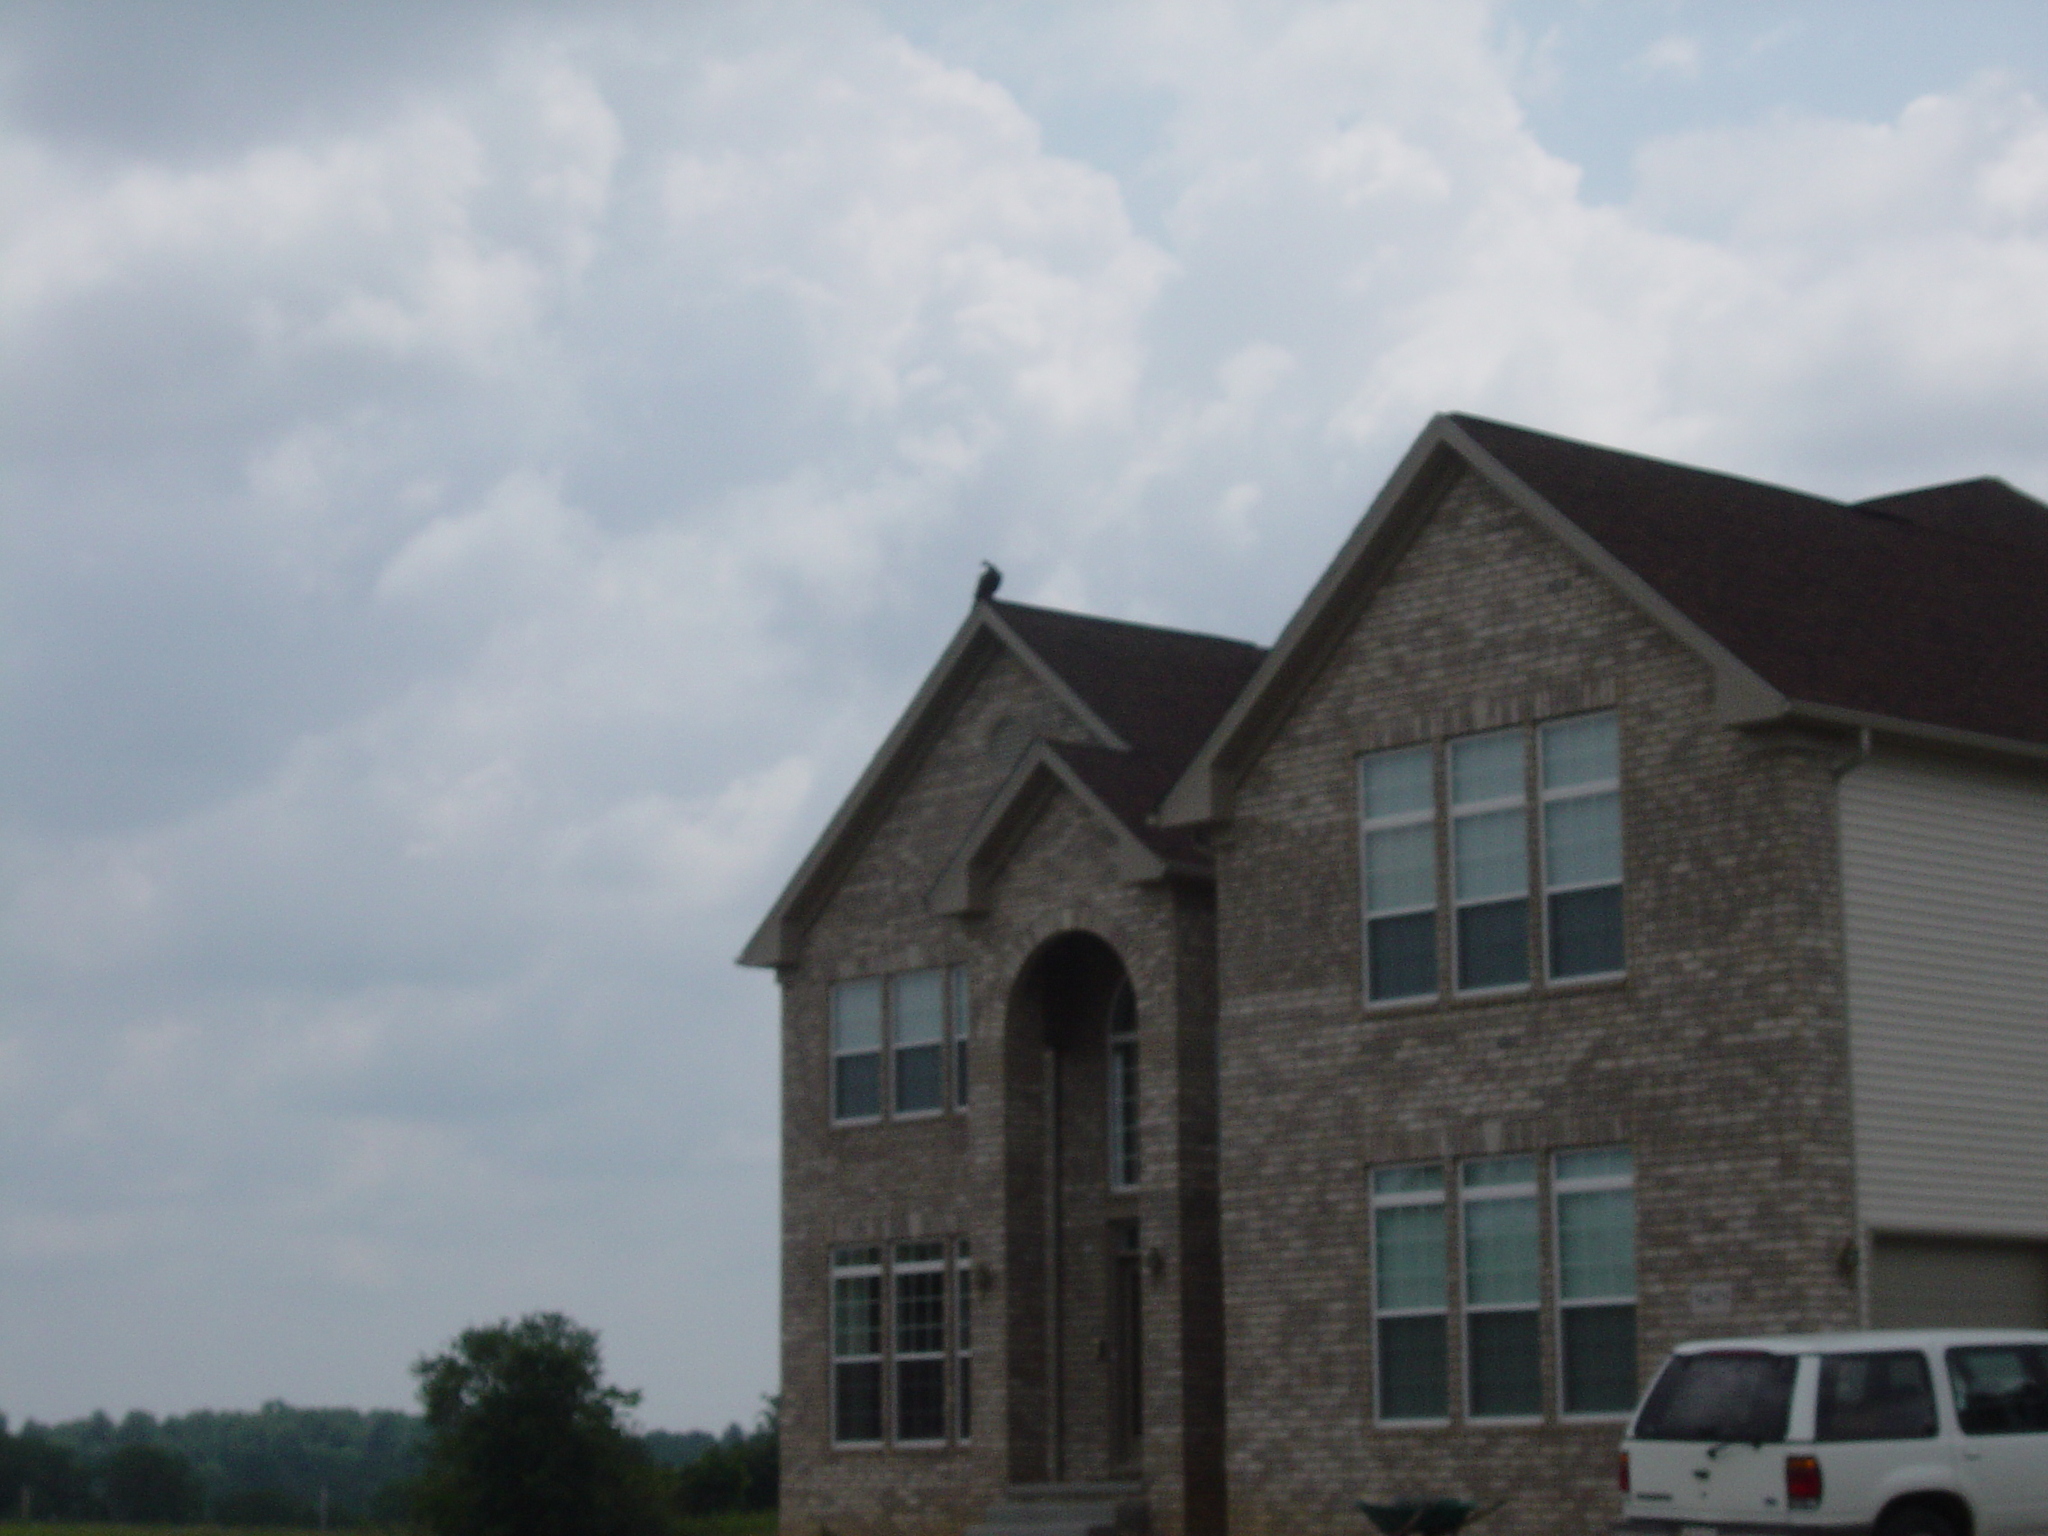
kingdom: Animalia
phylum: Chordata
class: Aves
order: Accipitriformes
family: Cathartidae
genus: Cathartes
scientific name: Cathartes aura
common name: Turkey vulture
